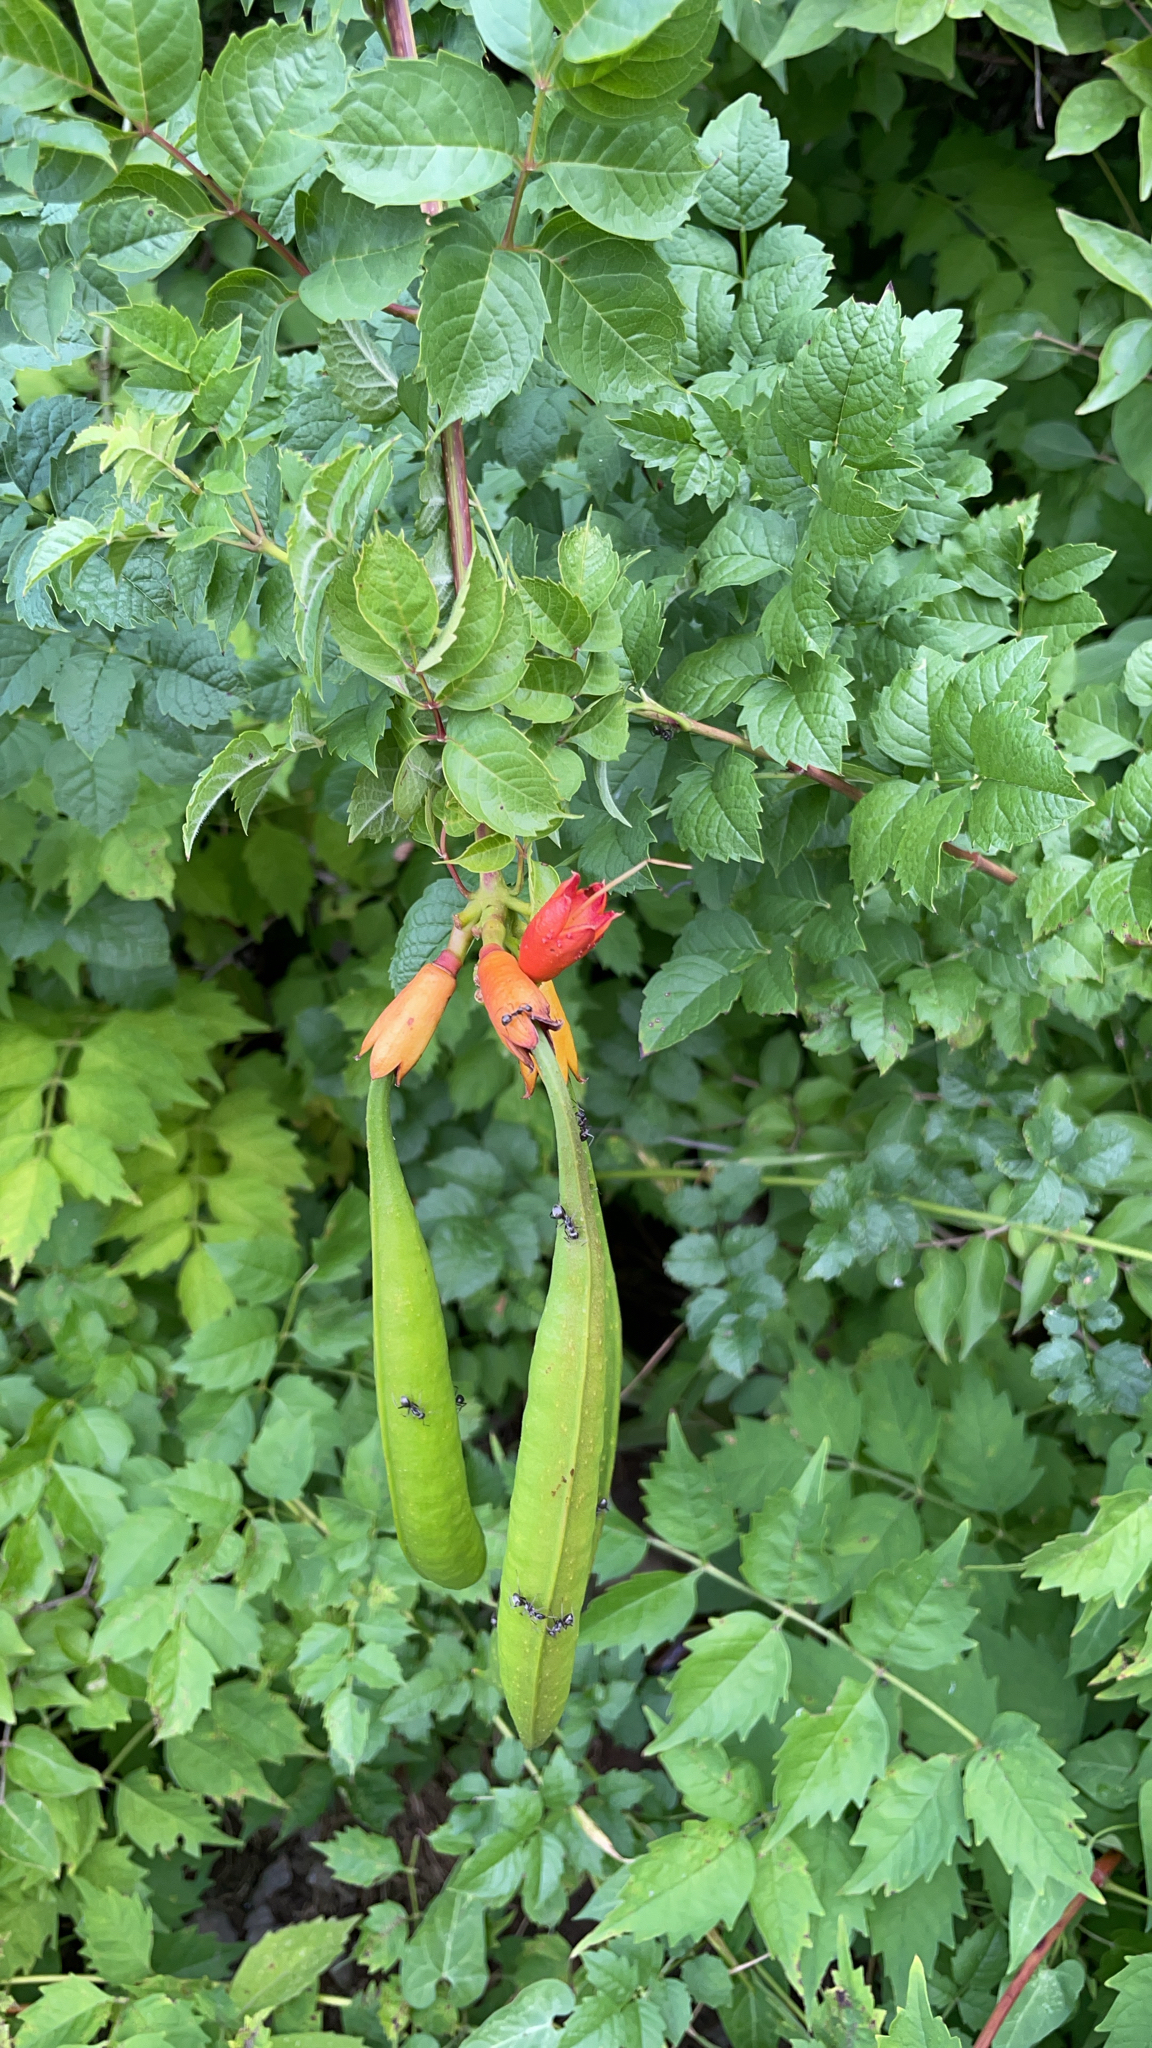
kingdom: Plantae
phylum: Tracheophyta
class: Magnoliopsida
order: Lamiales
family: Bignoniaceae
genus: Campsis
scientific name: Campsis radicans
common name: Trumpet-creeper
